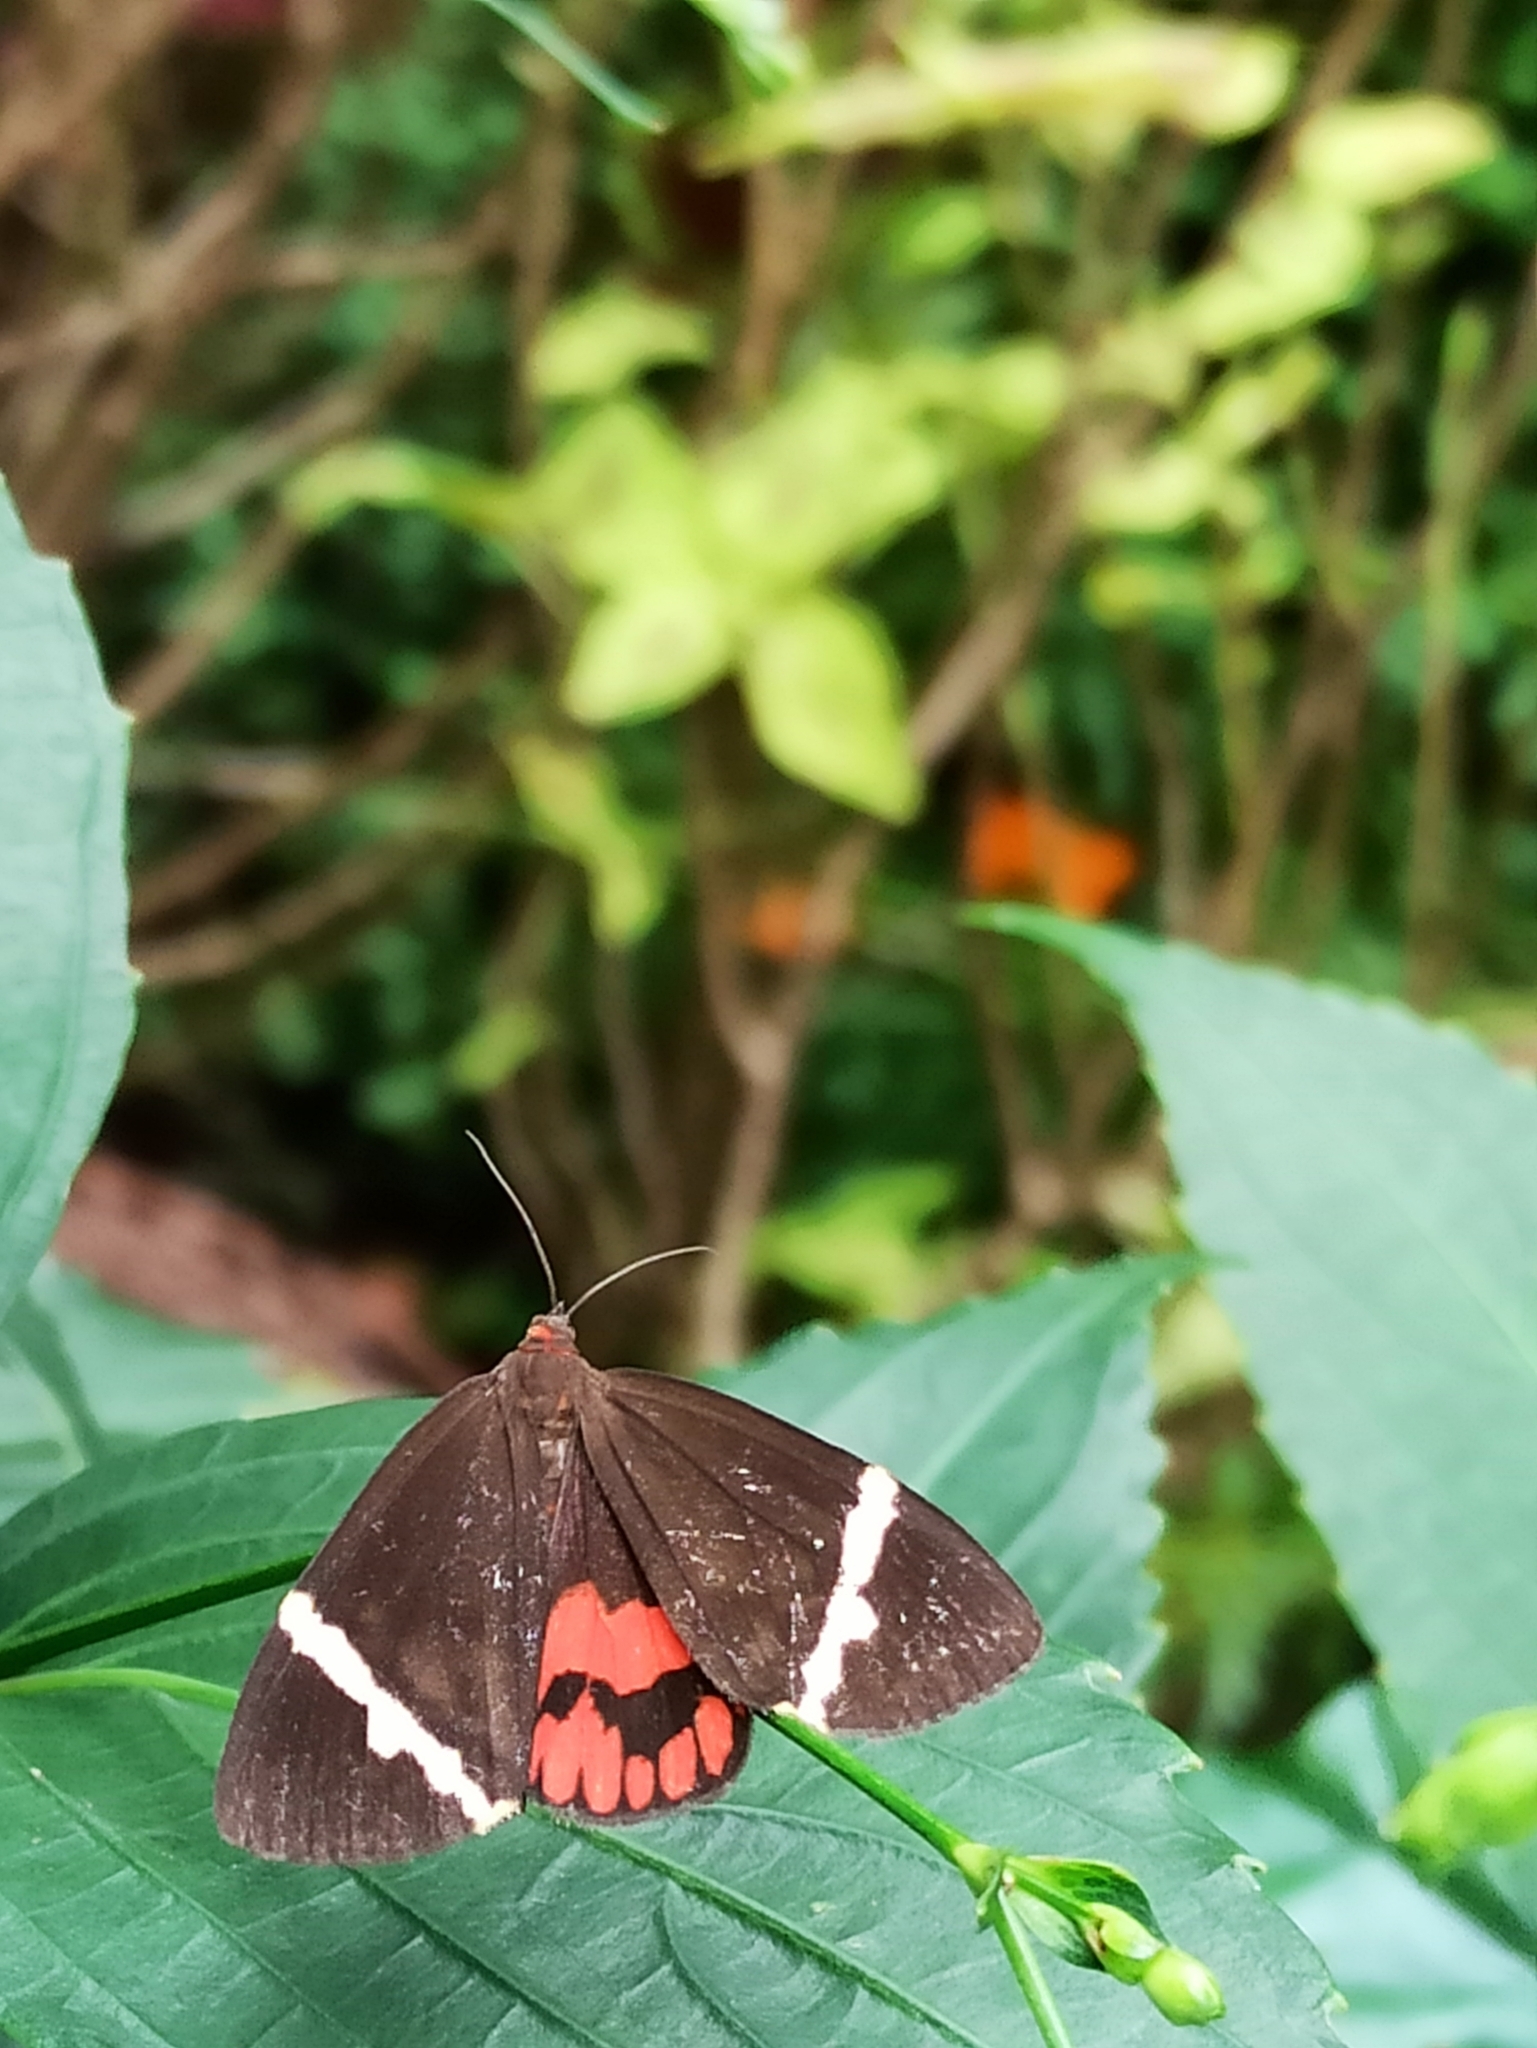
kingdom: Animalia
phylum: Arthropoda
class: Insecta
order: Lepidoptera
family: Erebidae
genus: Curoba
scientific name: Curoba sangarida
